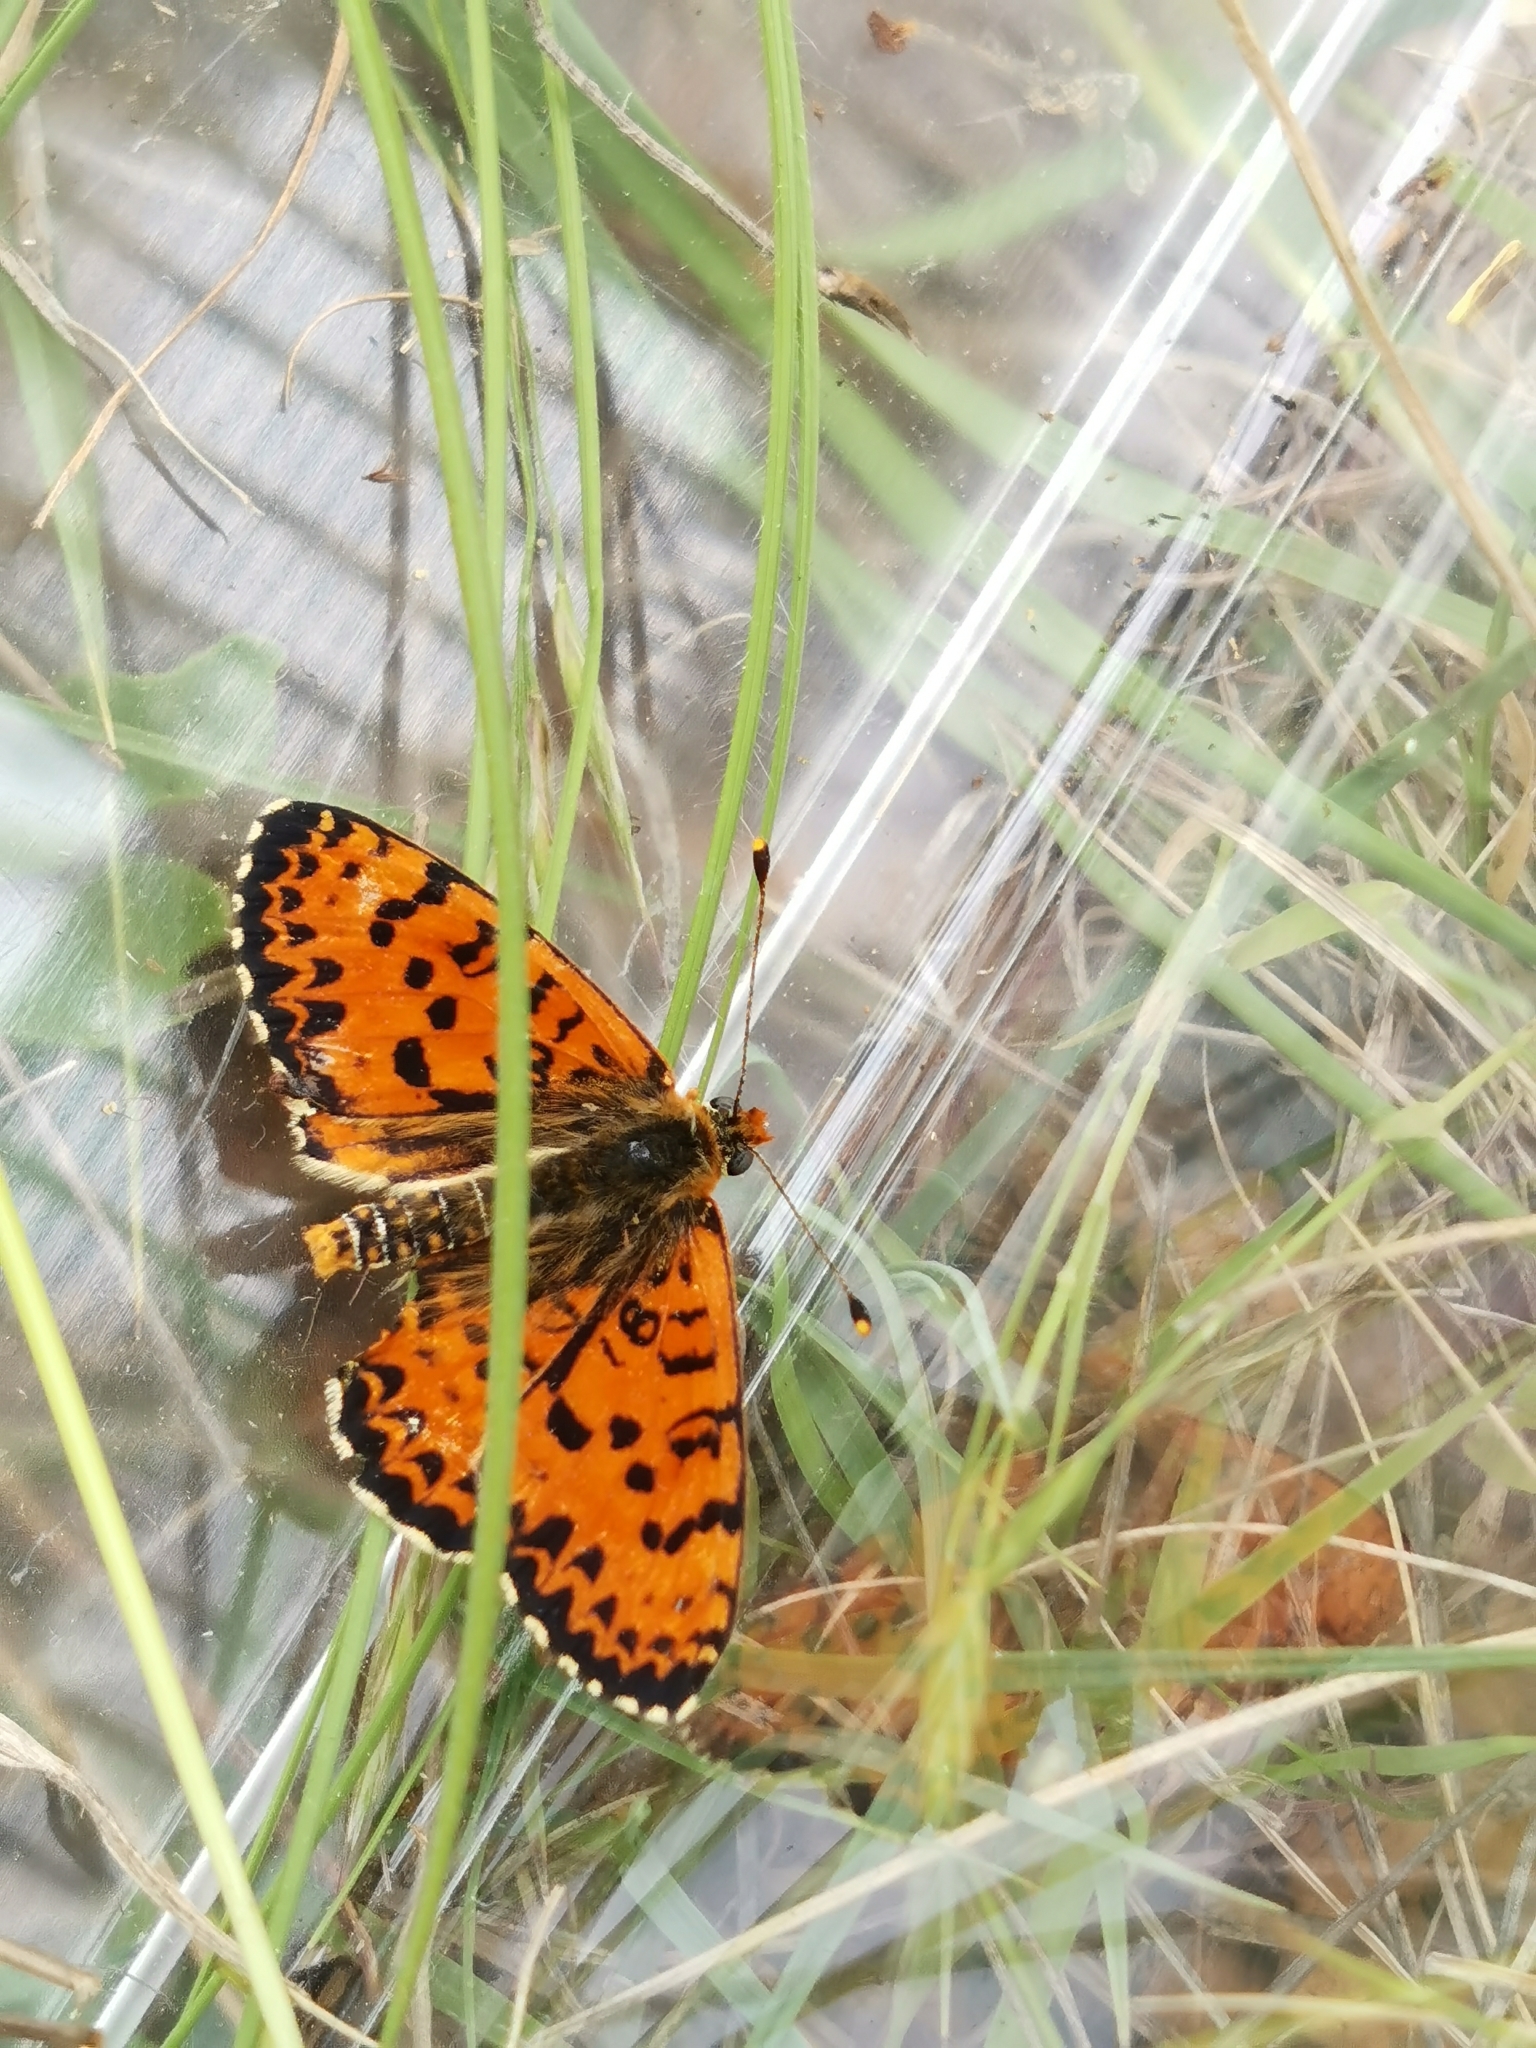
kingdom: Animalia
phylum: Arthropoda
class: Insecta
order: Lepidoptera
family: Nymphalidae
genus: Melitaea
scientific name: Melitaea didyma
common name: Spotted fritillary
